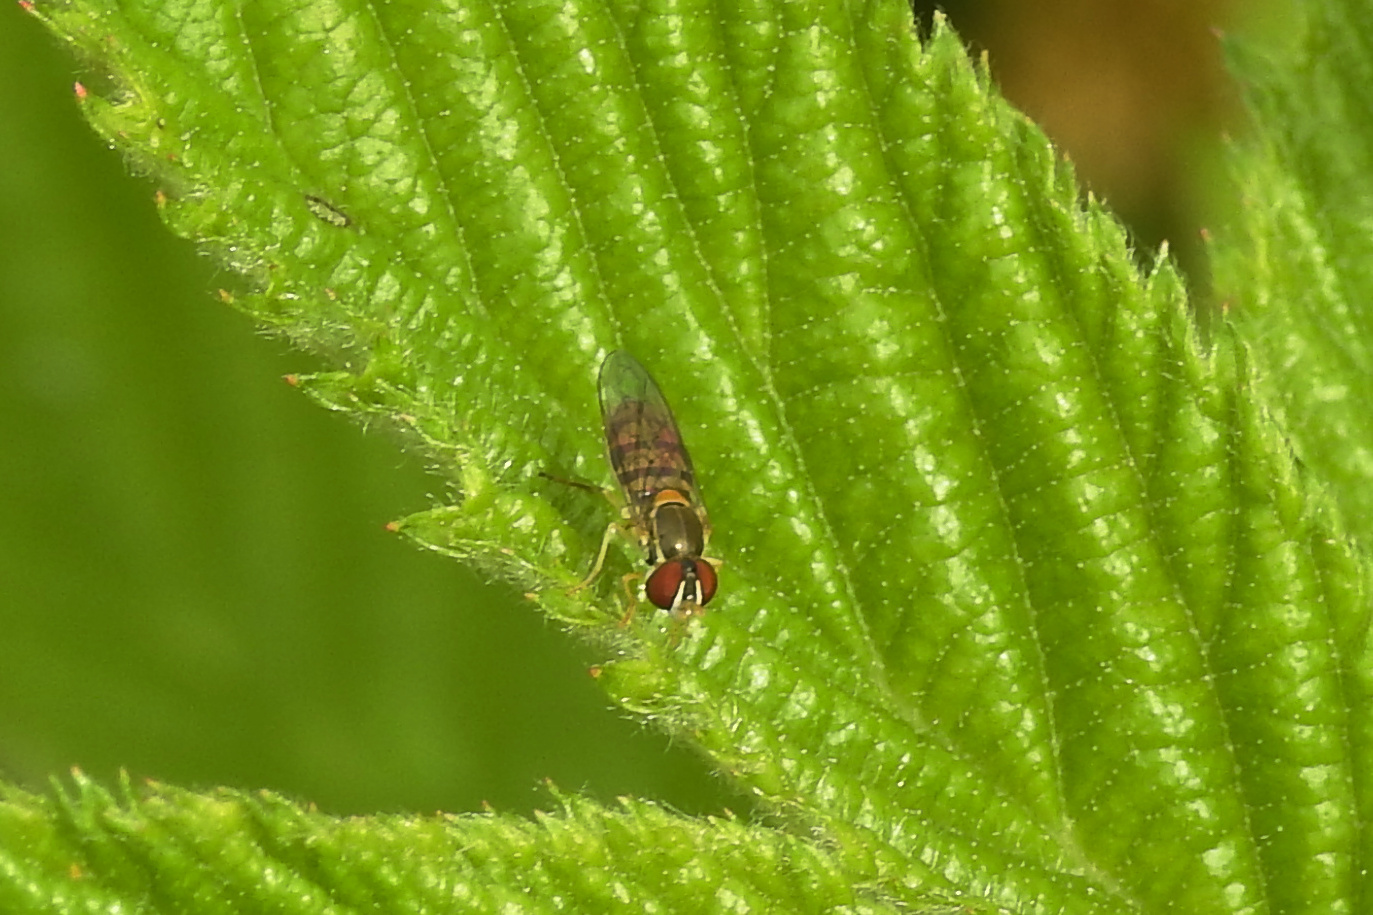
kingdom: Animalia
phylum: Arthropoda
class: Insecta
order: Diptera
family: Syrphidae
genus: Toxomerus
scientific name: Toxomerus marginatus
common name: Syrphid fly
